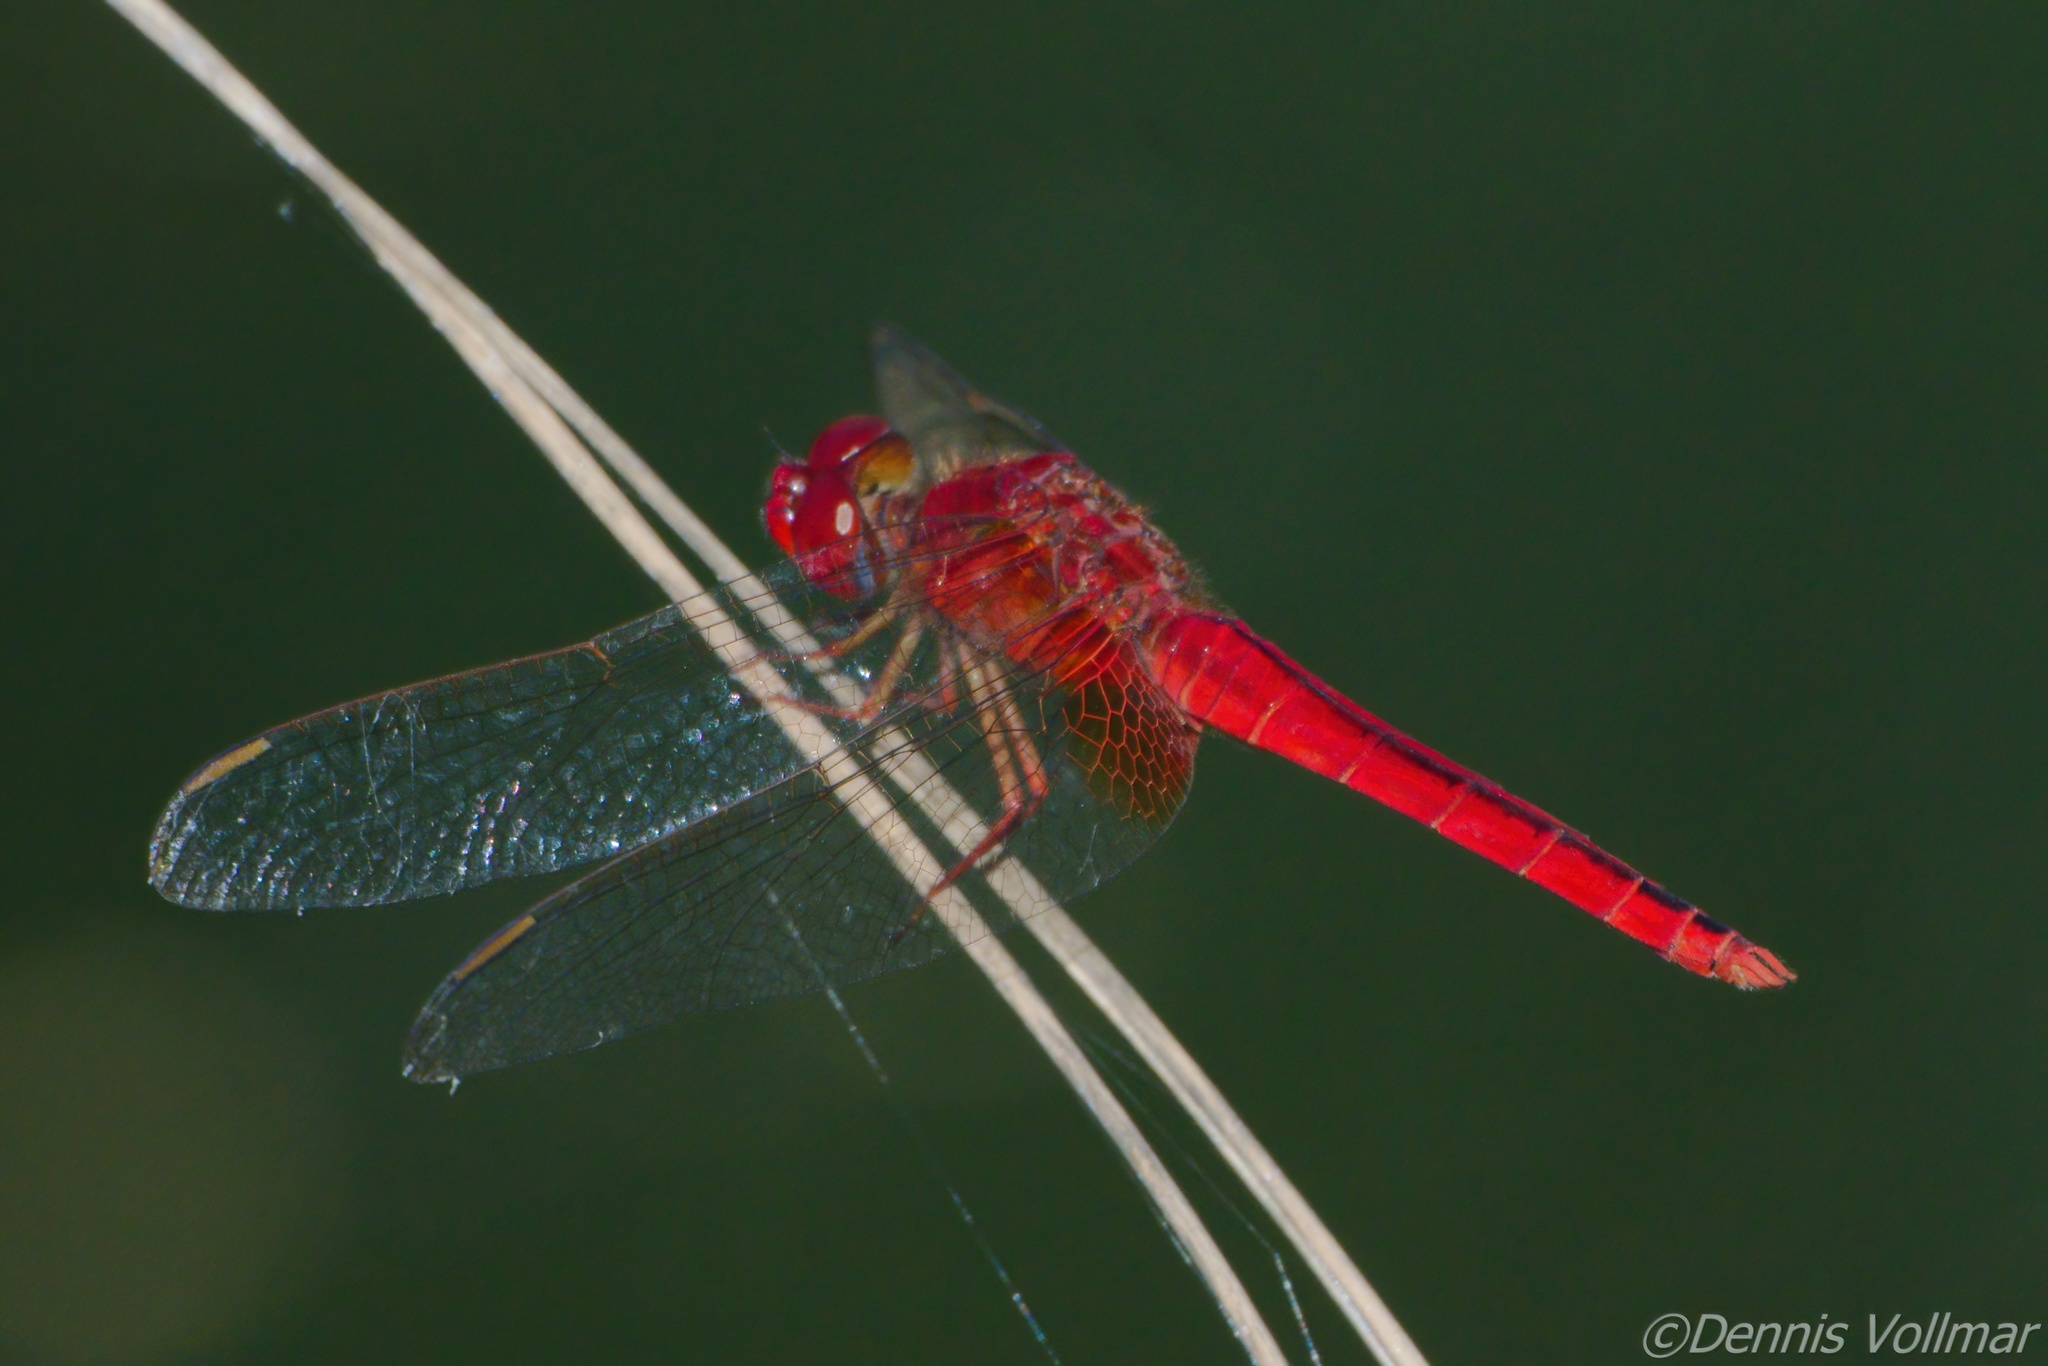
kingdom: Animalia
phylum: Arthropoda
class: Insecta
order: Odonata
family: Libellulidae
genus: Crocothemis
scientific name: Crocothemis servilia
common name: Scarlet skimmer
